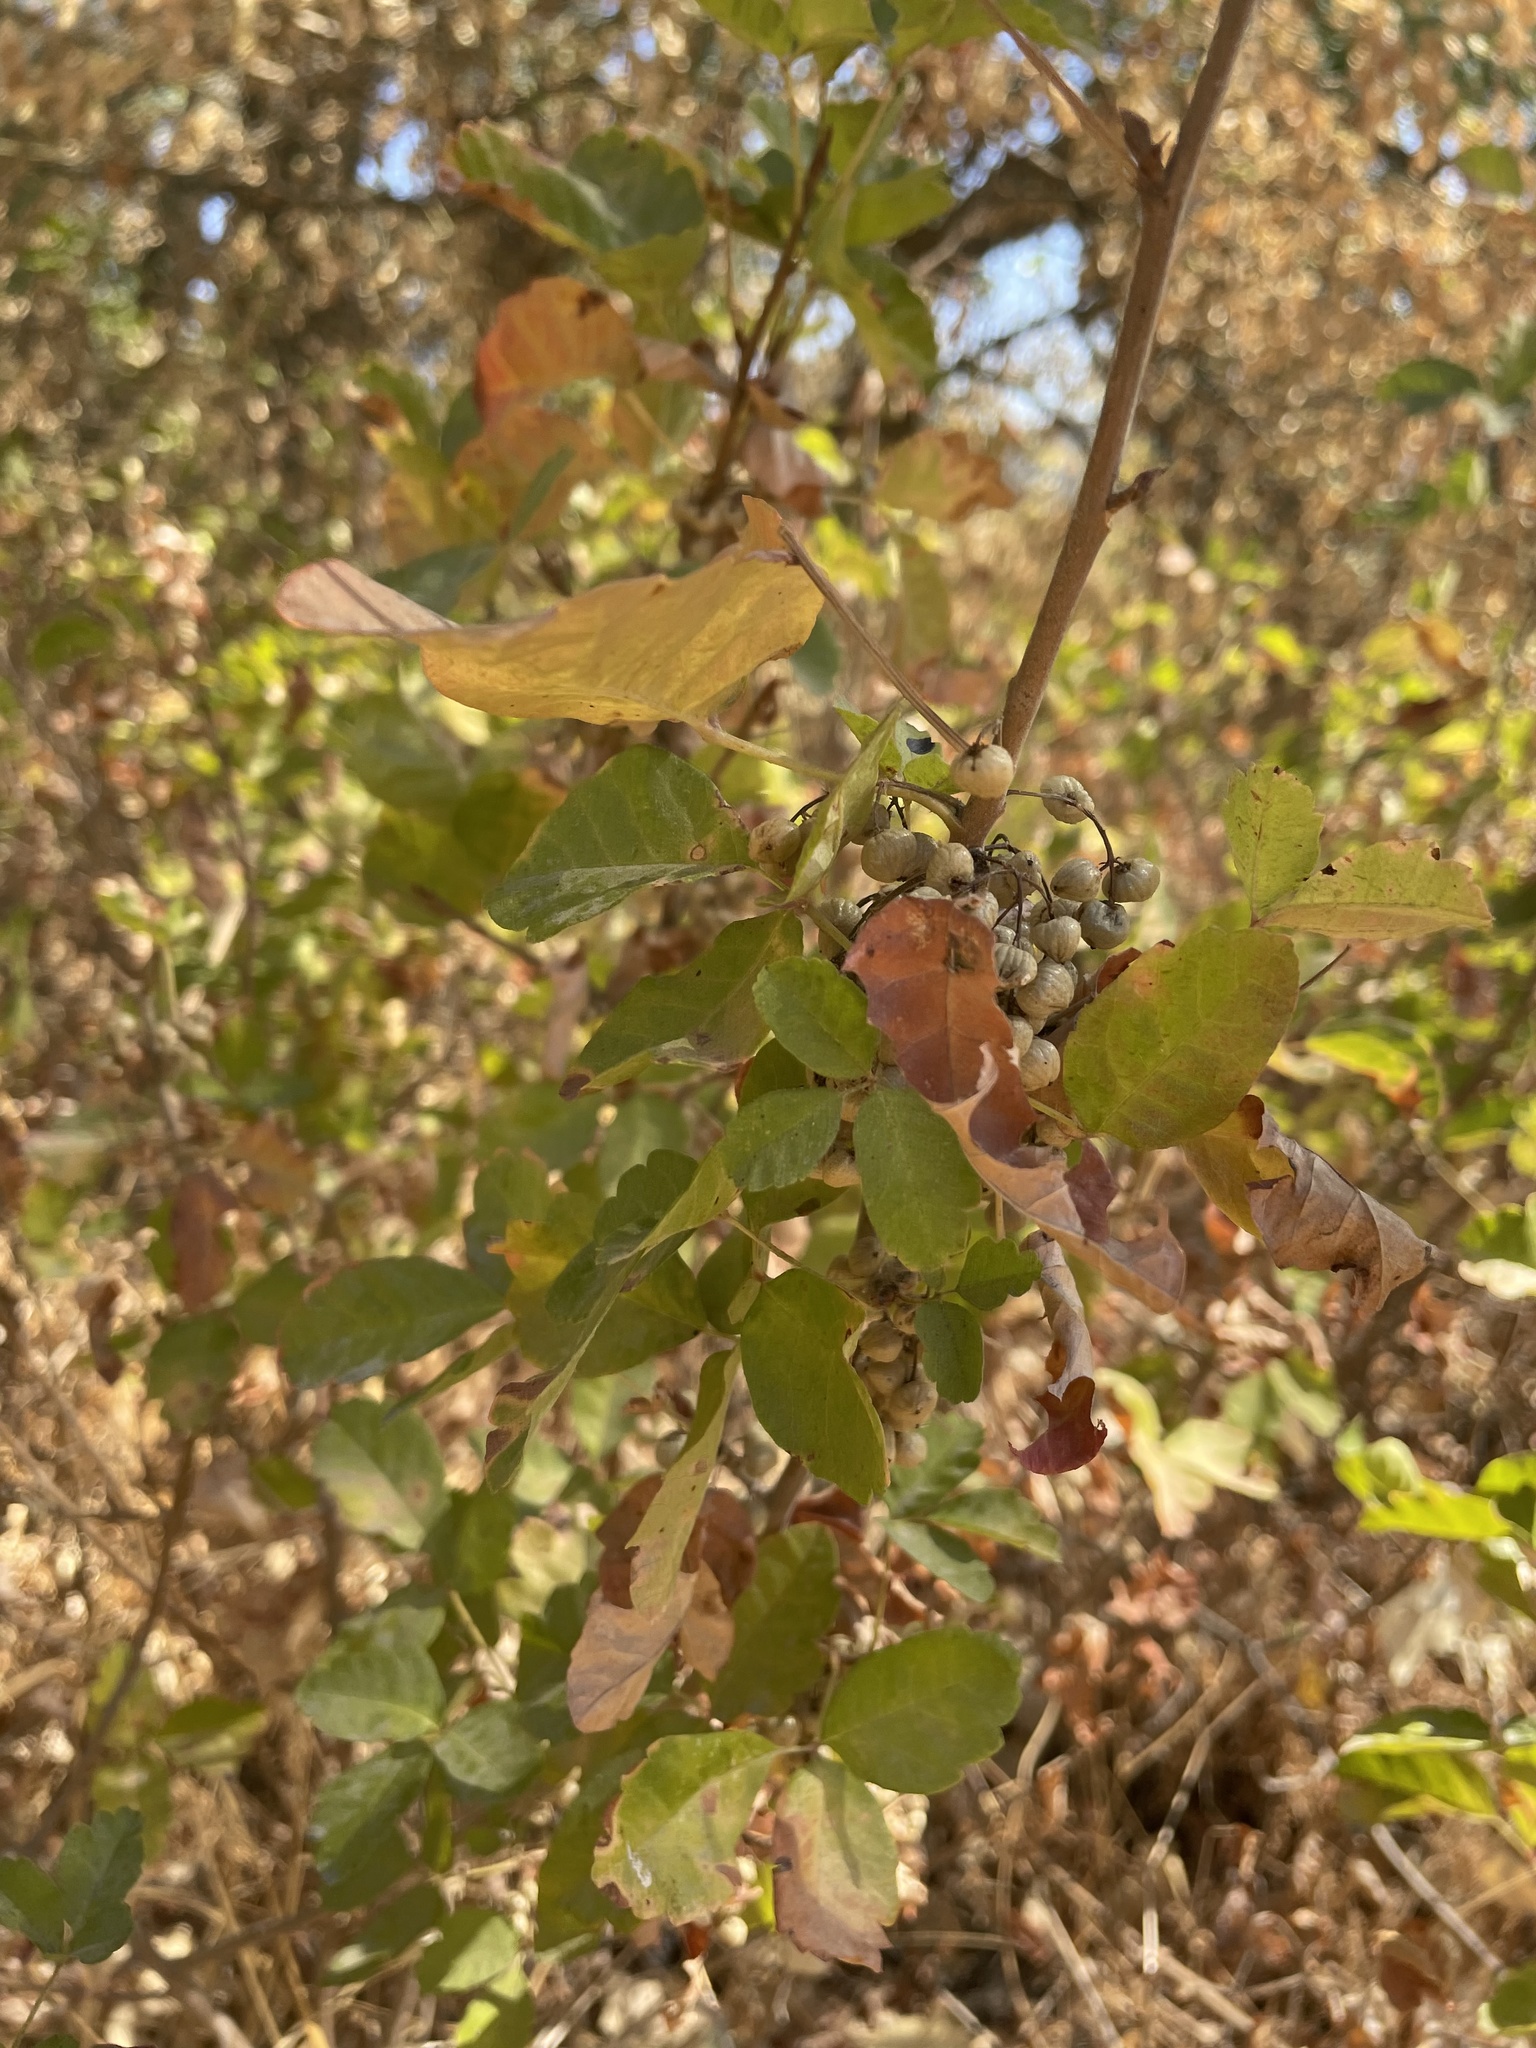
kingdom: Plantae
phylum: Tracheophyta
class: Magnoliopsida
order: Sapindales
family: Anacardiaceae
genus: Toxicodendron
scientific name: Toxicodendron diversilobum
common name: Pacific poison-oak
